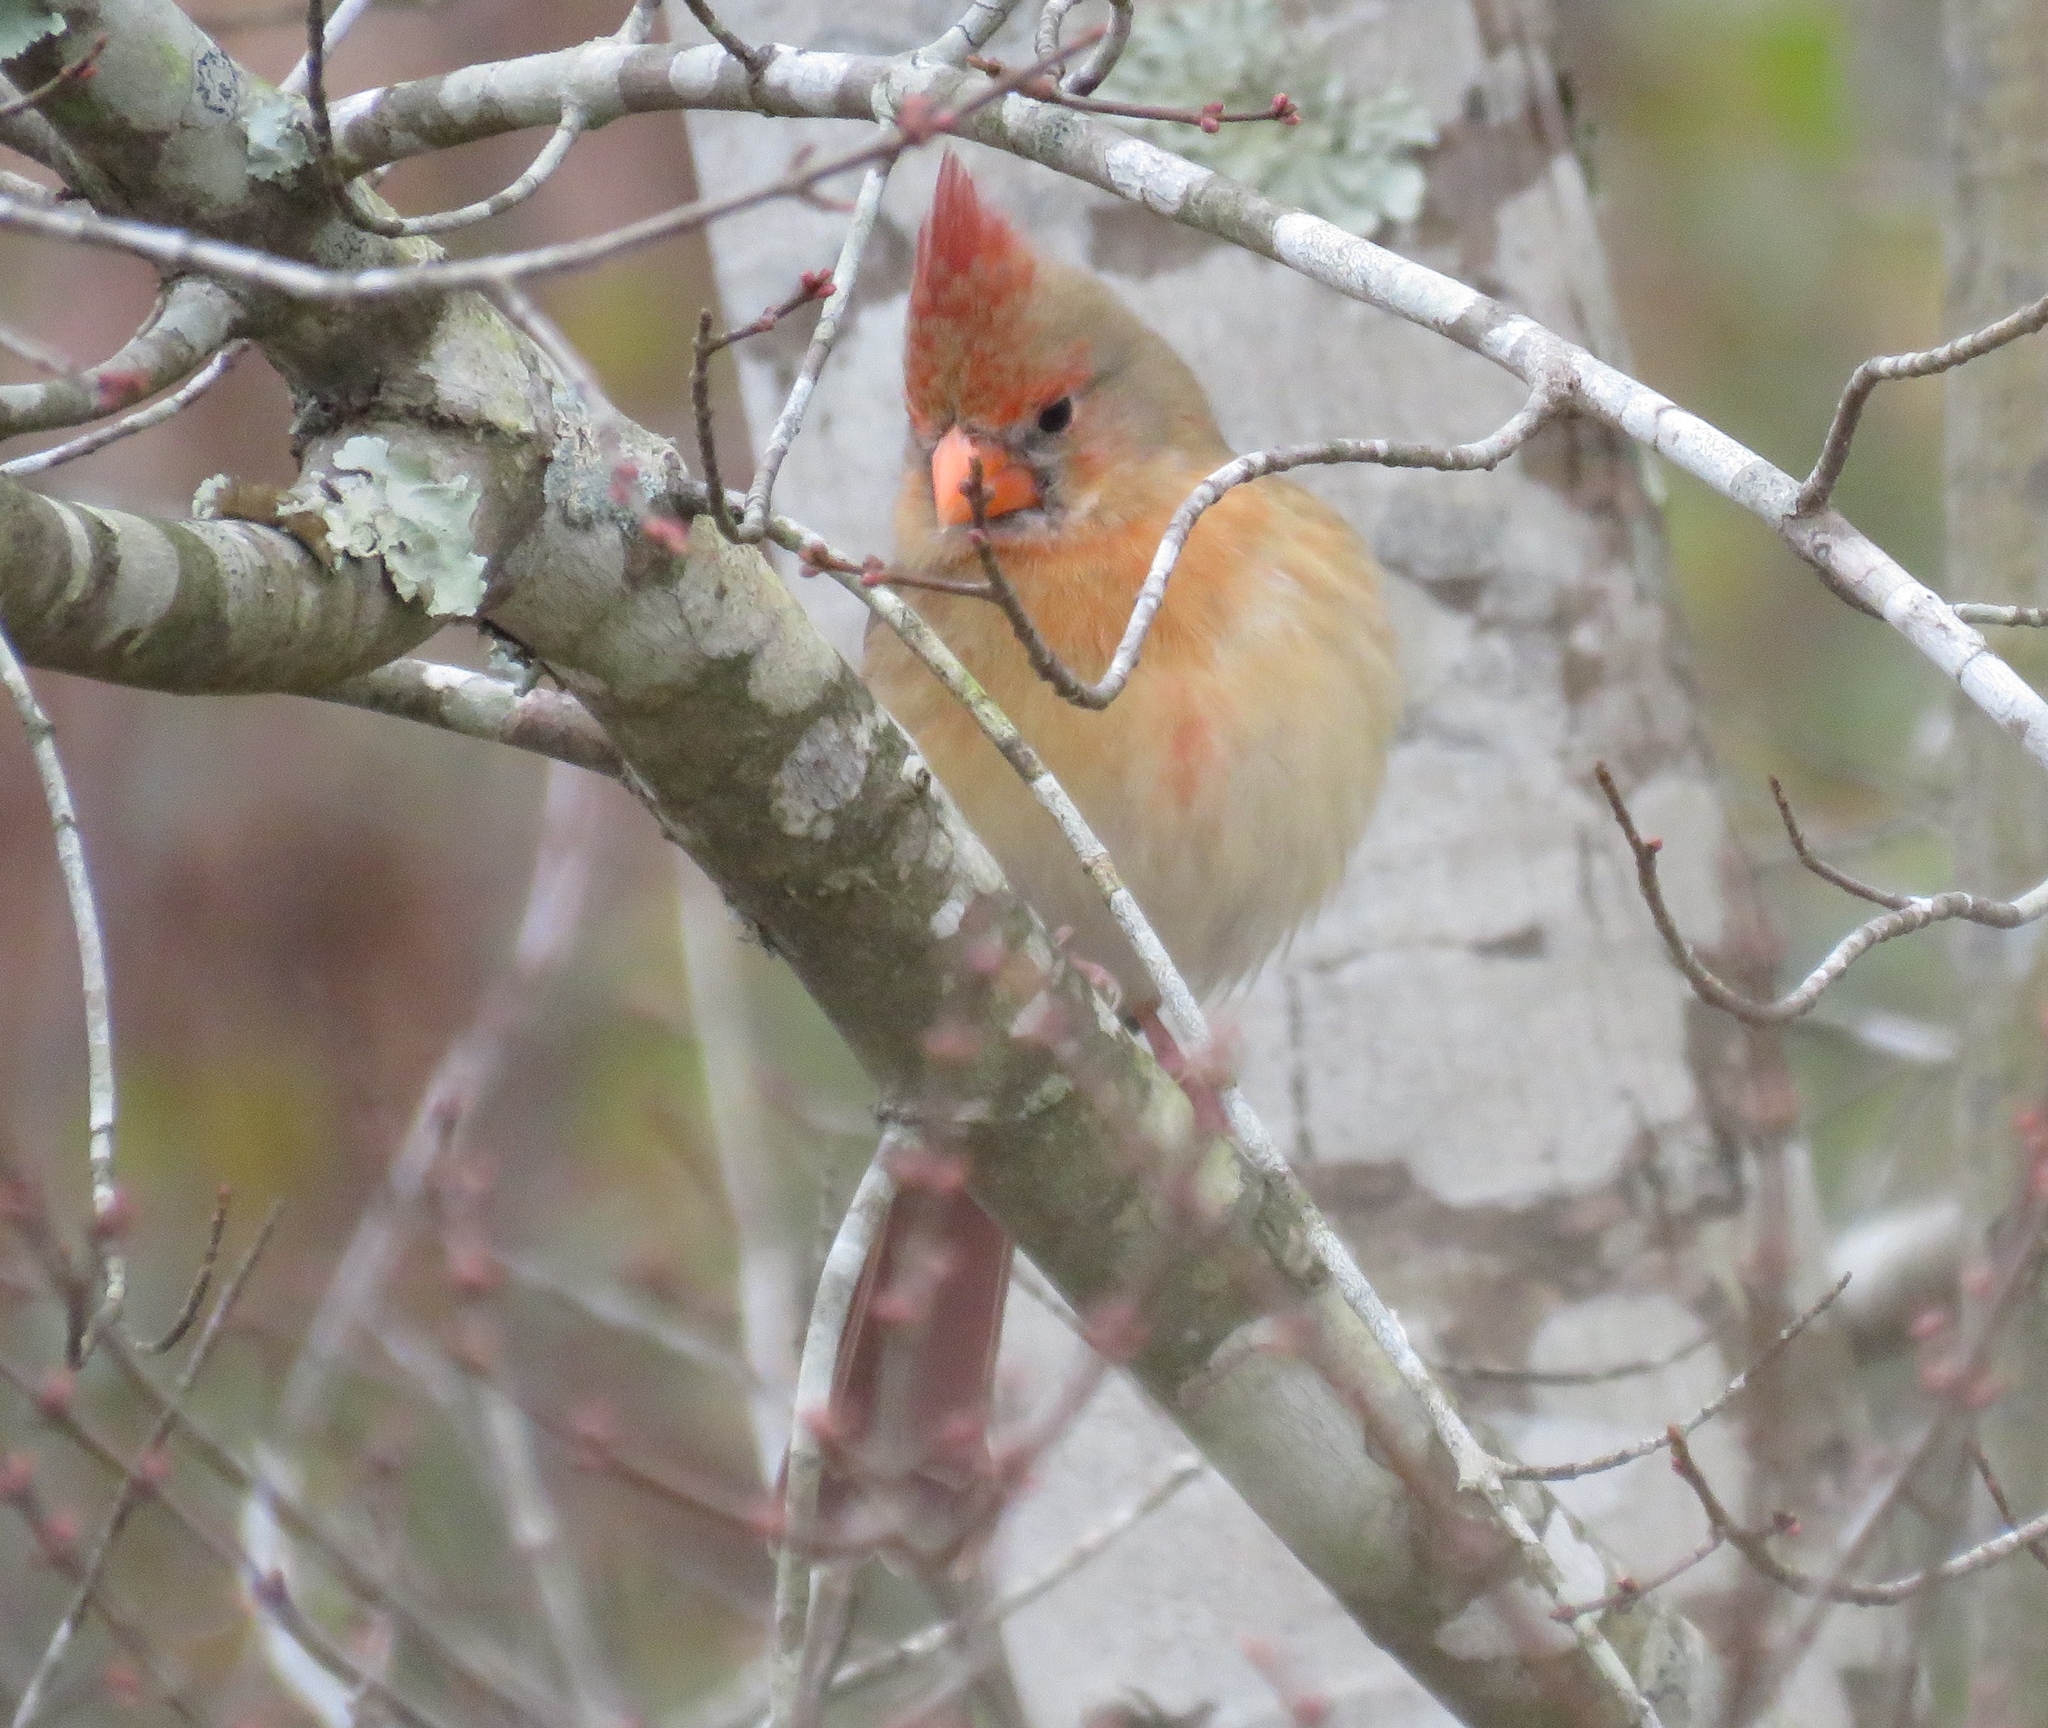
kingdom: Animalia
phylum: Chordata
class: Aves
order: Passeriformes
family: Cardinalidae
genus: Cardinalis
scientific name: Cardinalis cardinalis
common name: Northern cardinal
